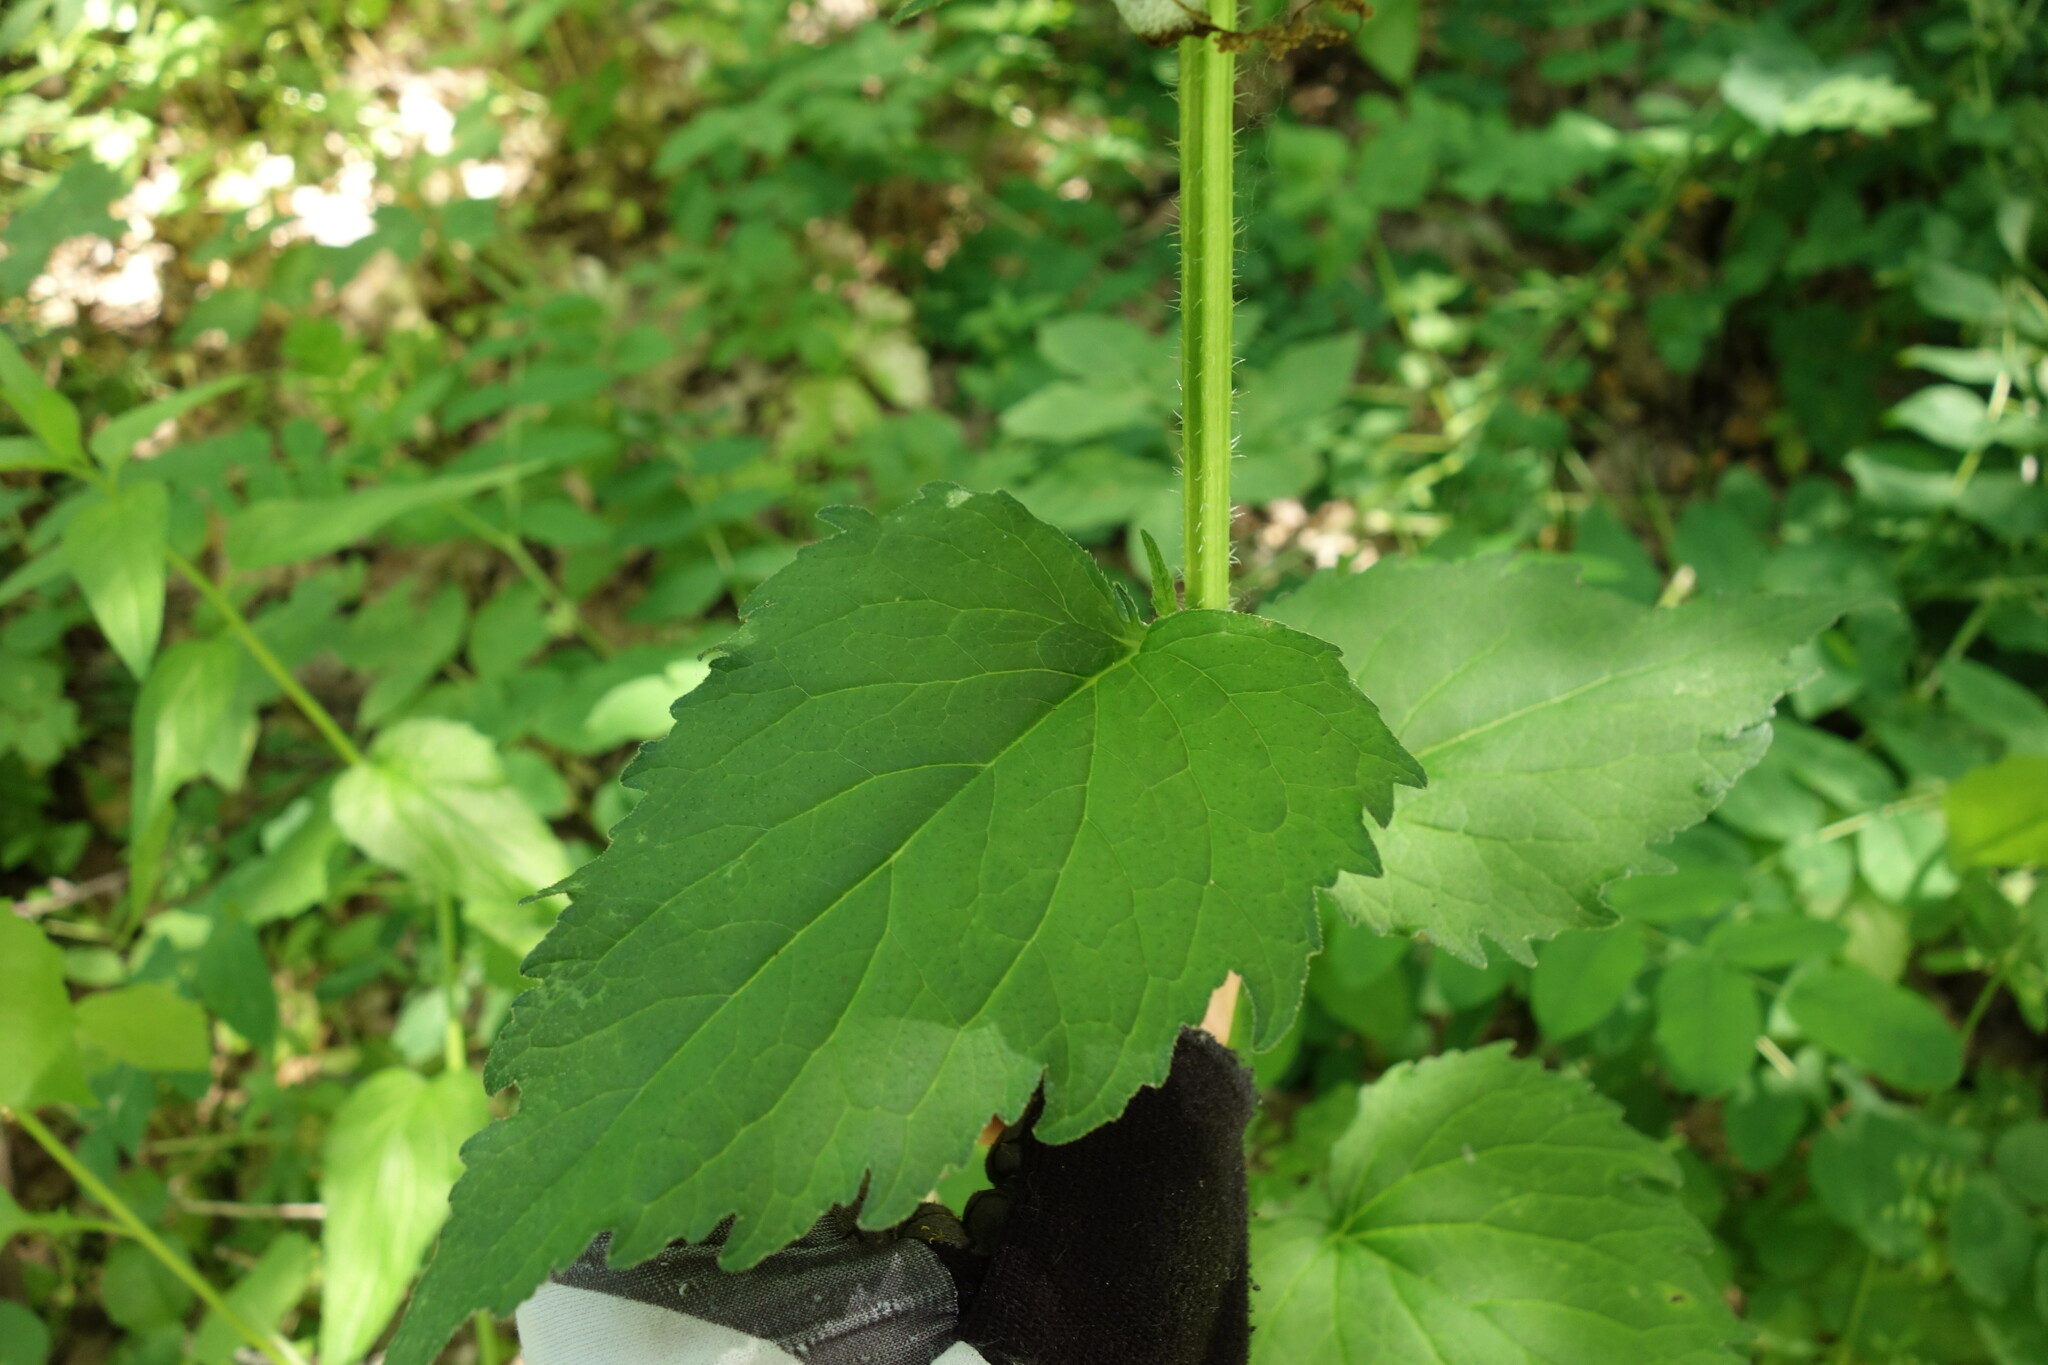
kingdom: Plantae
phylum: Tracheophyta
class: Magnoliopsida
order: Asterales
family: Campanulaceae
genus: Campanula
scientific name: Campanula trachelium
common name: Nettle-leaved bellflower
